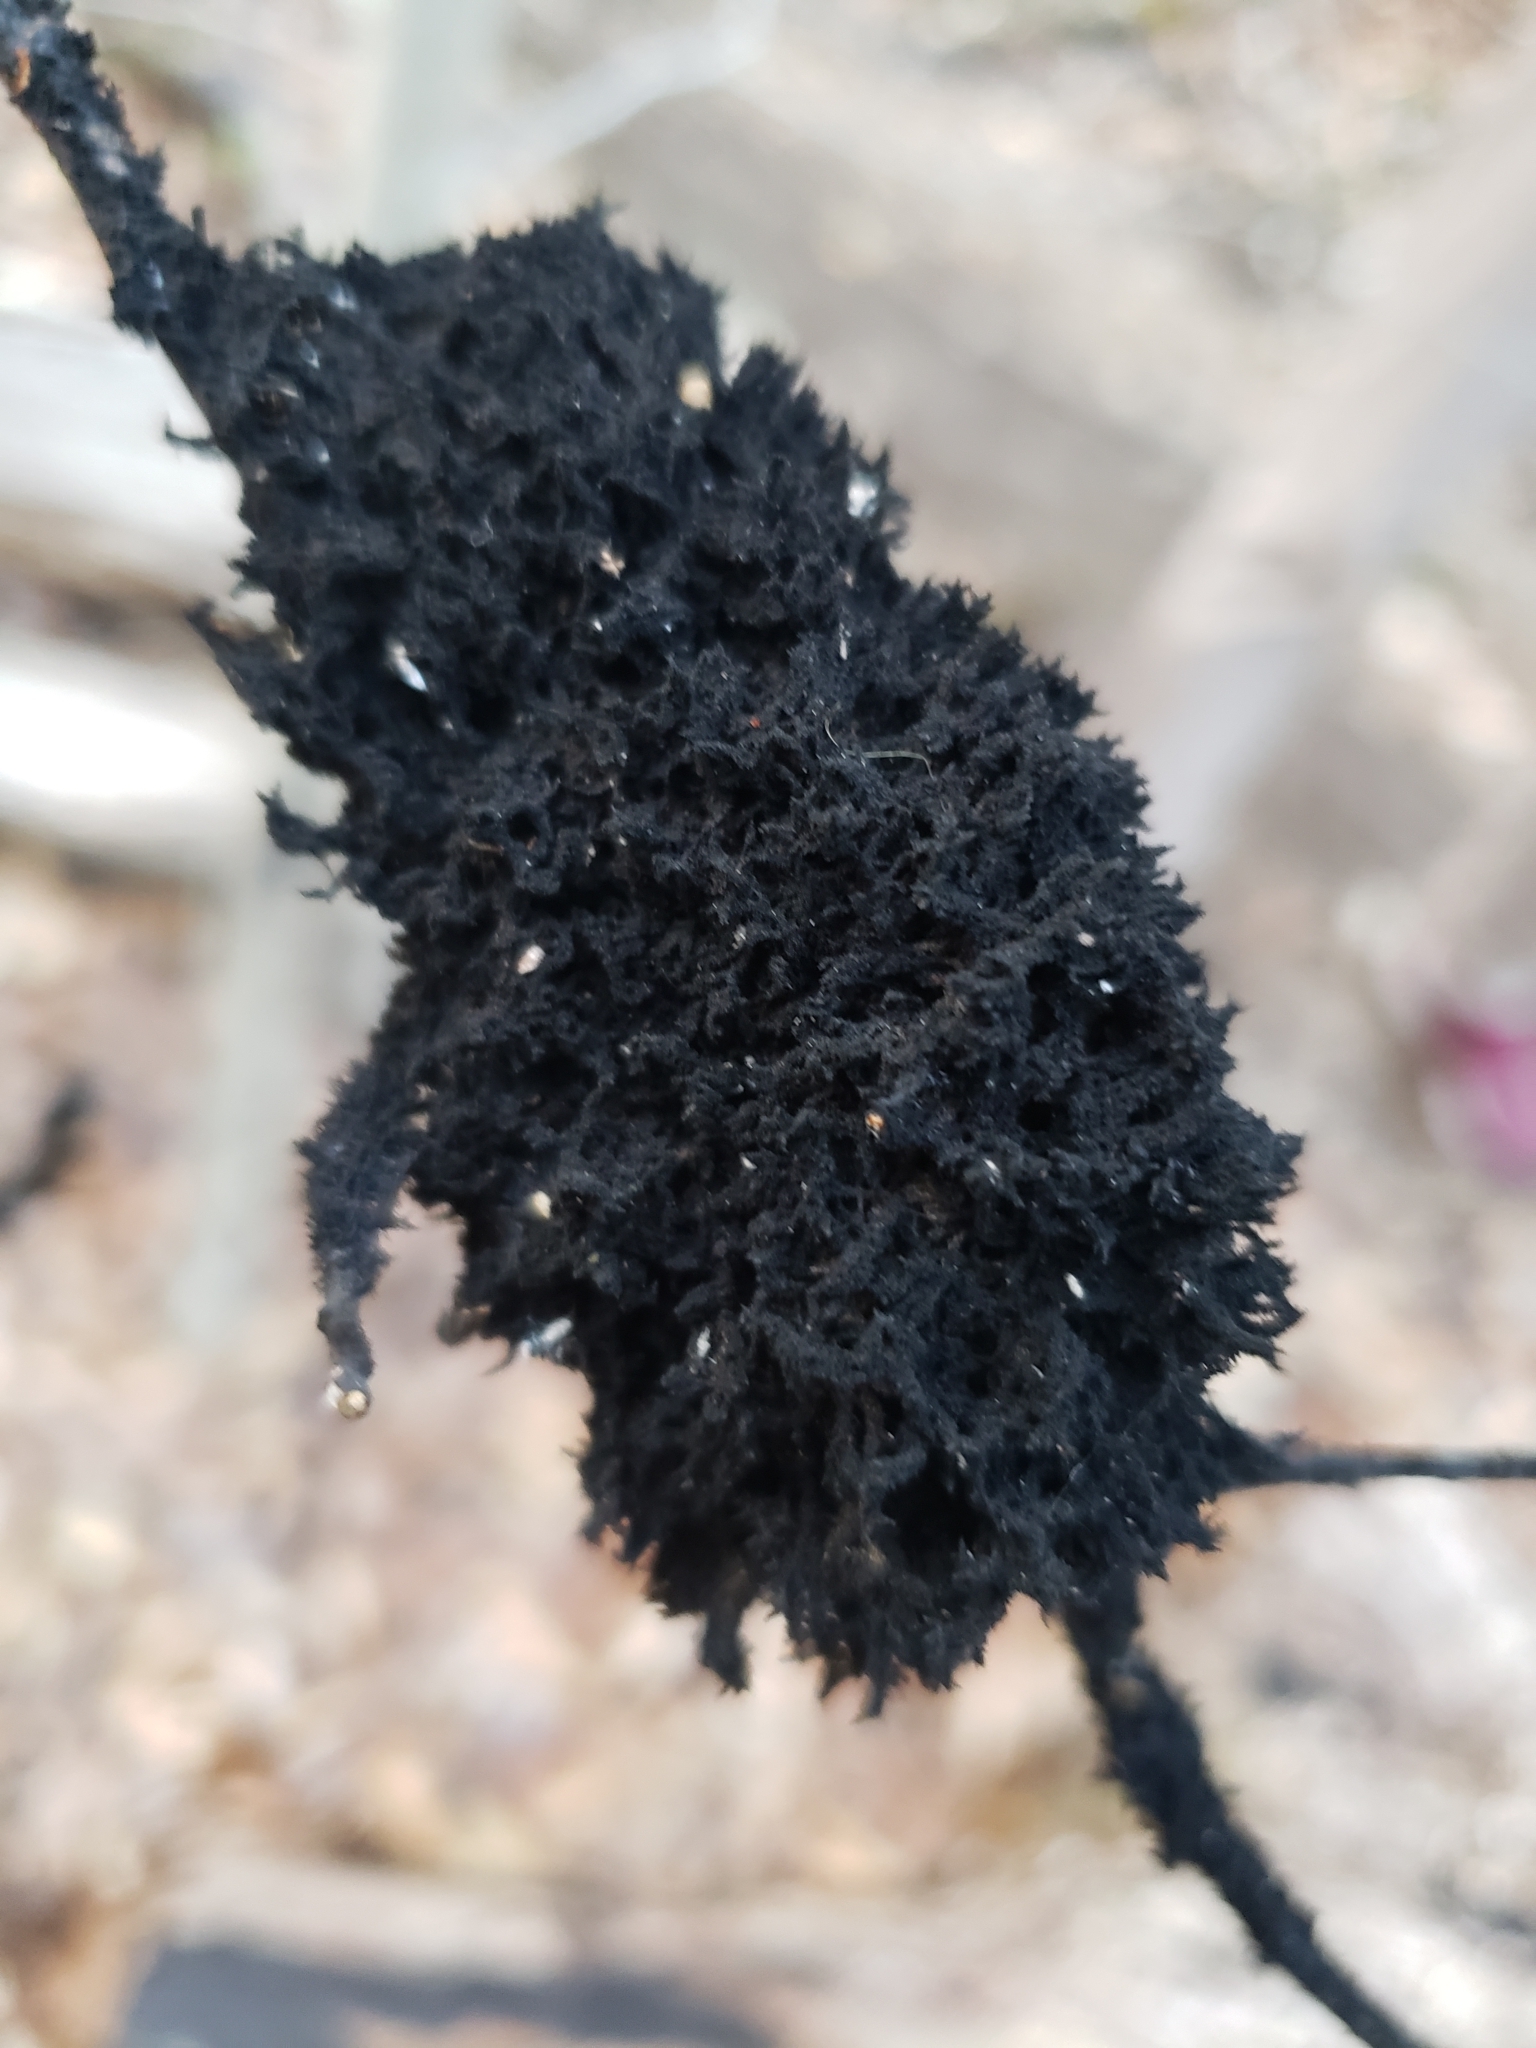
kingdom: Fungi
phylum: Ascomycota
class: Dothideomycetes
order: Capnodiales
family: Capnodiaceae
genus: Scorias
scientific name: Scorias spongiosa
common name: Black sooty mold
